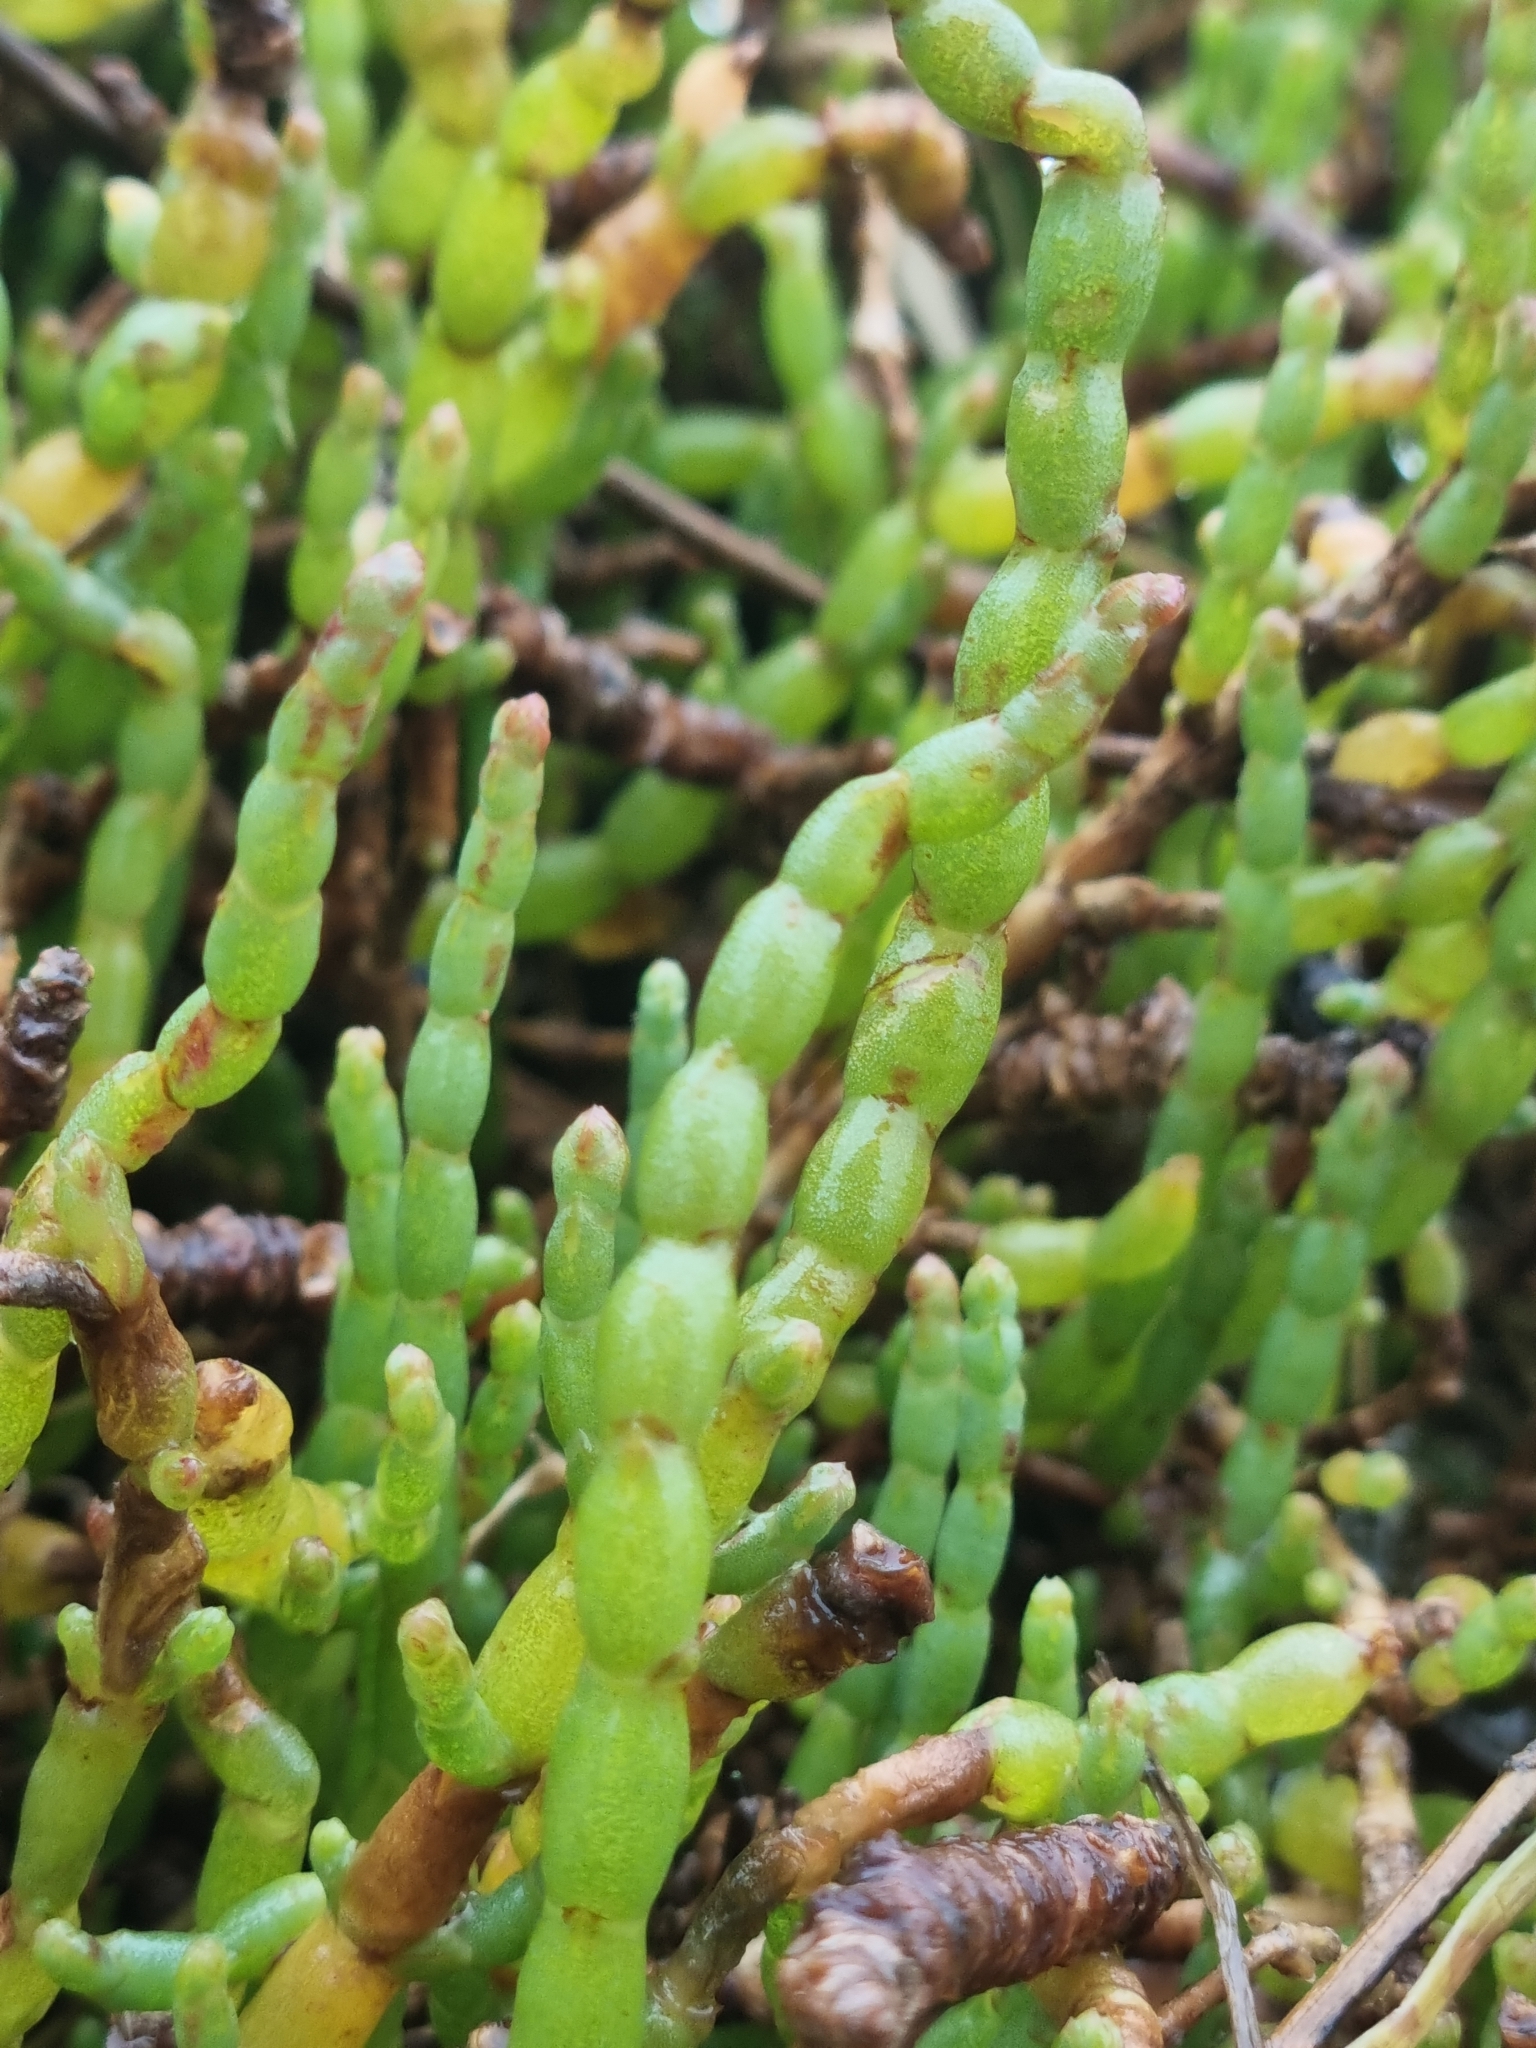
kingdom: Plantae
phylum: Tracheophyta
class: Magnoliopsida
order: Caryophyllales
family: Amaranthaceae
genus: Salicornia
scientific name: Salicornia quinqueflora
